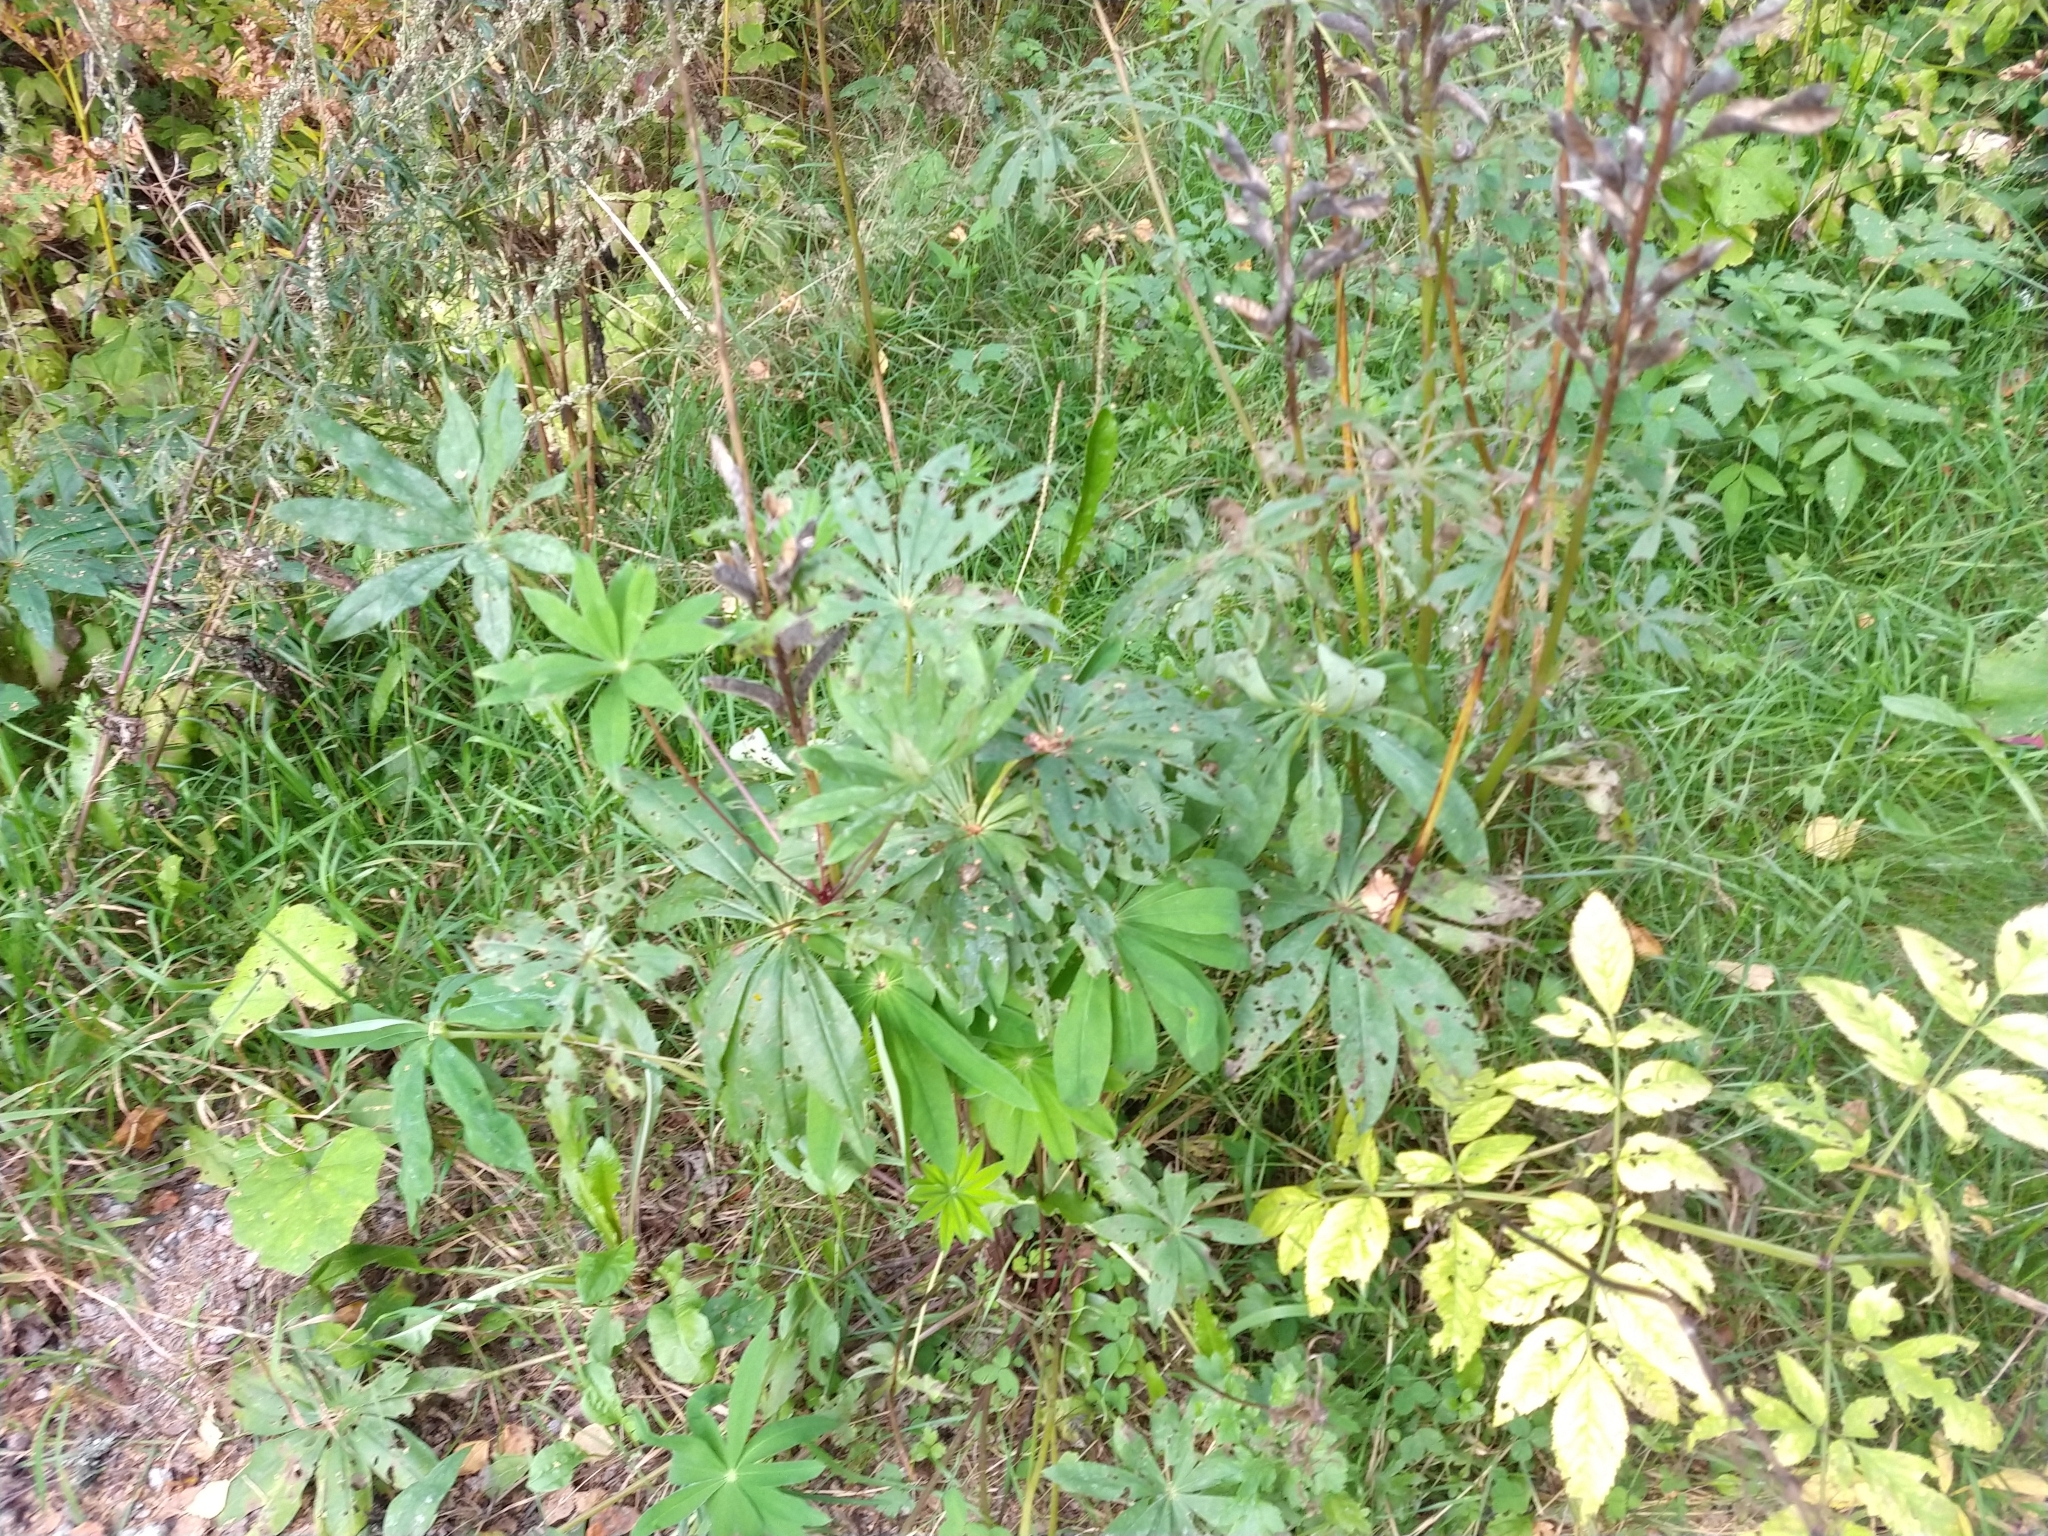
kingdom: Plantae
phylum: Tracheophyta
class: Magnoliopsida
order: Fabales
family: Fabaceae
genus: Lupinus
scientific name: Lupinus polyphyllus
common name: Garden lupin
